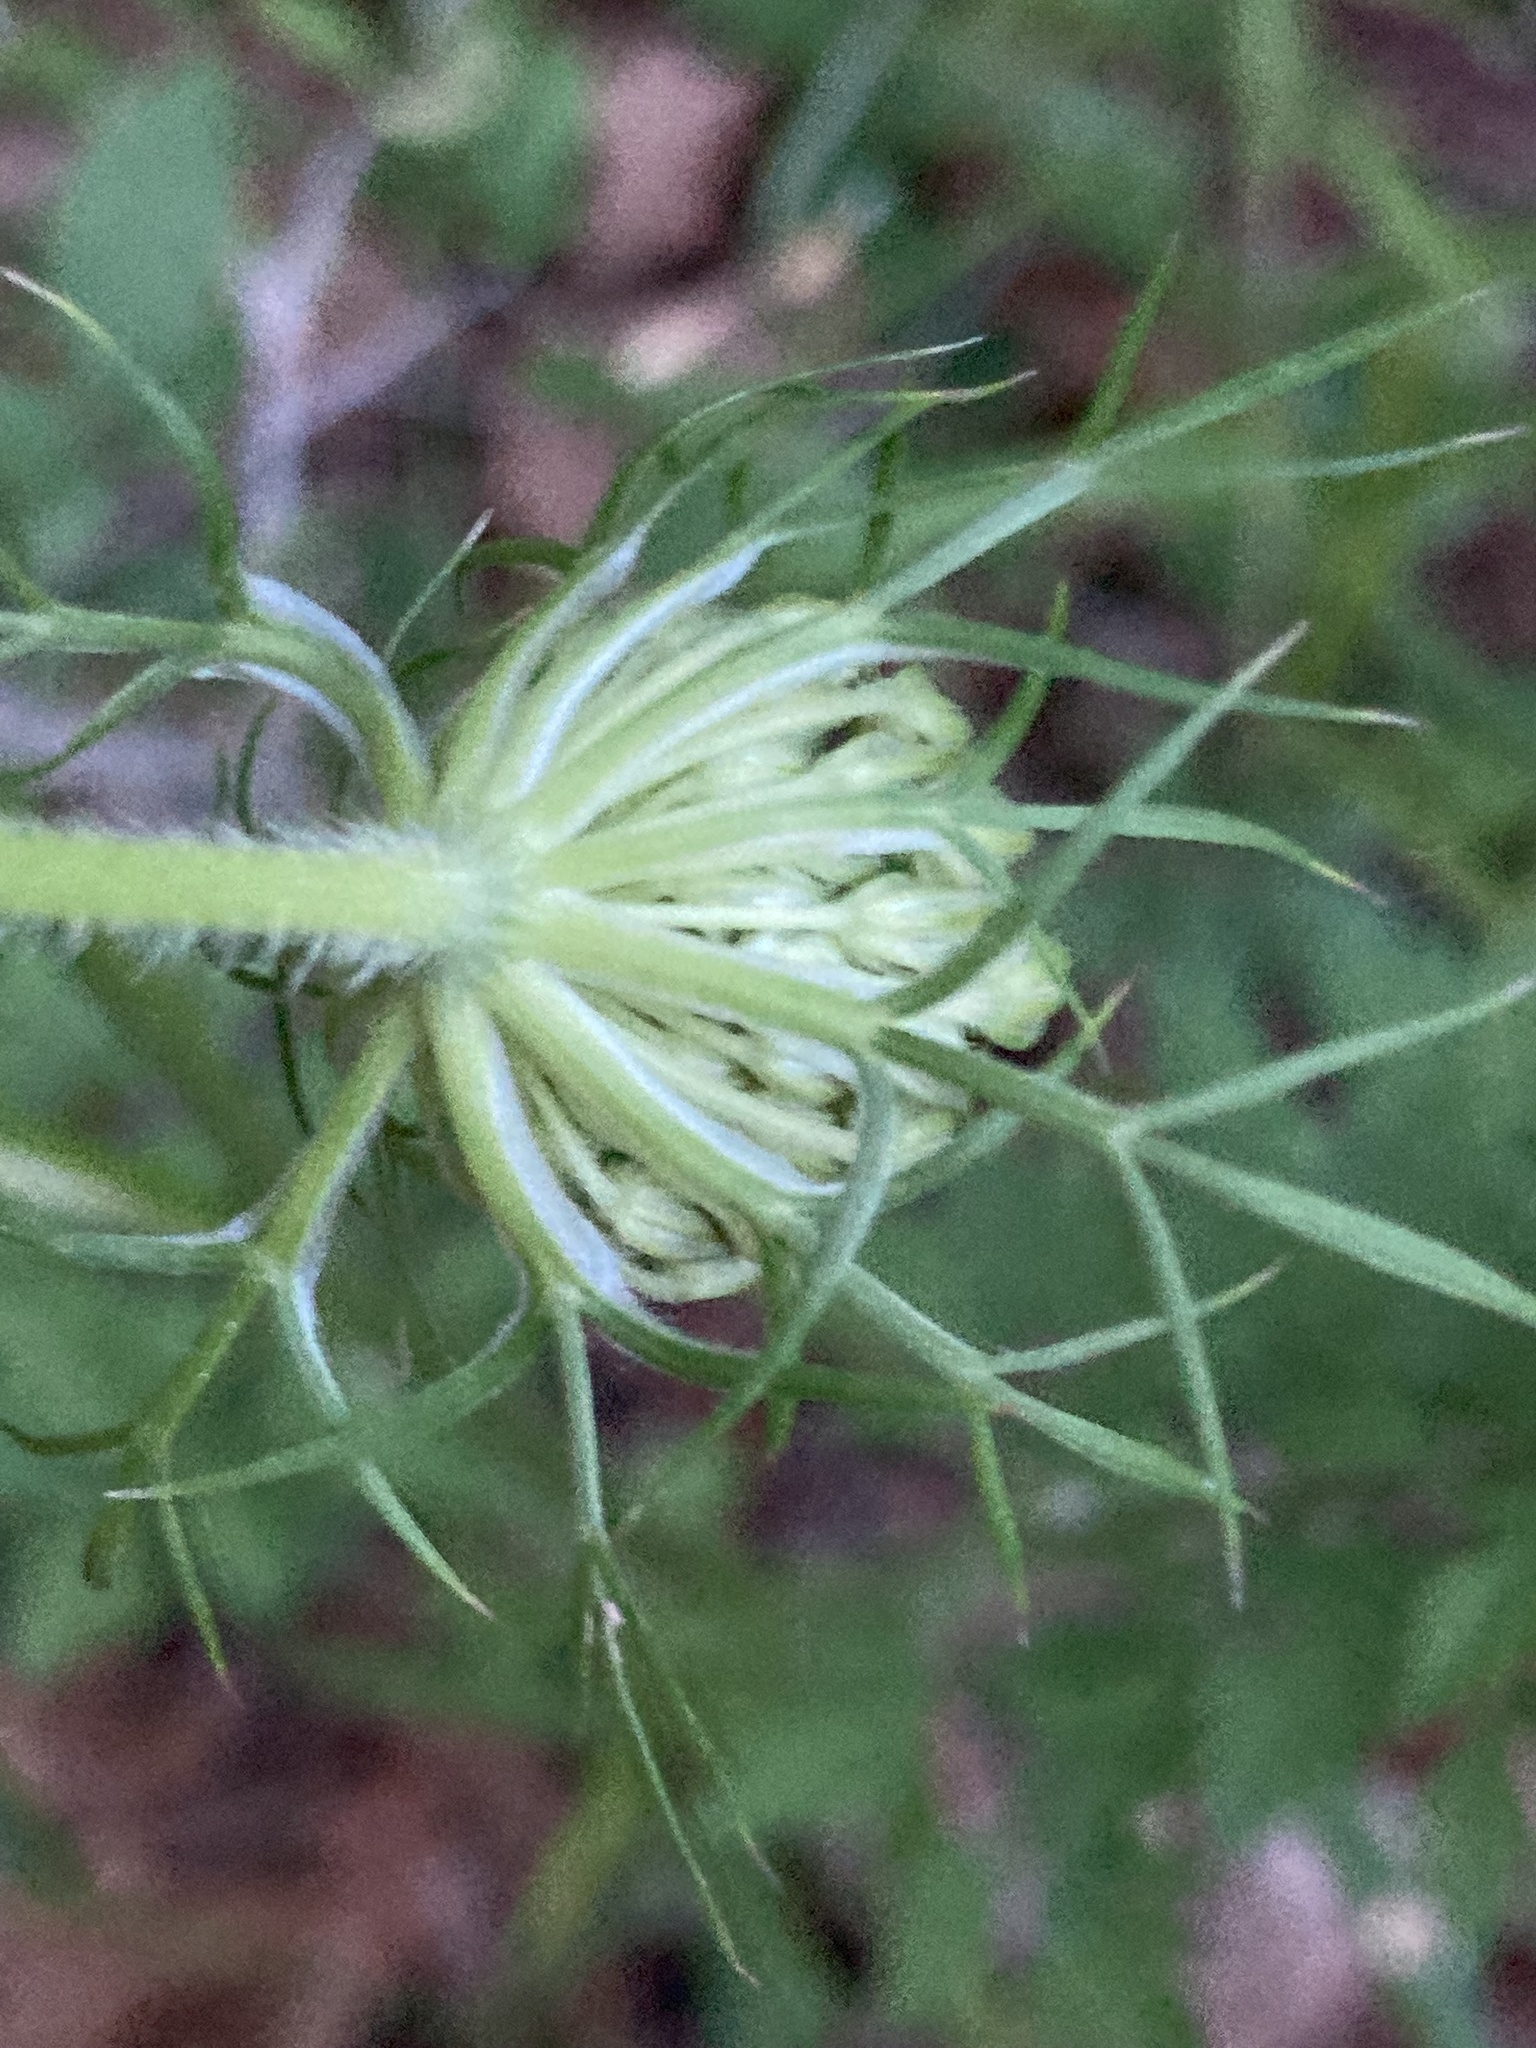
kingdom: Plantae
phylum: Tracheophyta
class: Magnoliopsida
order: Apiales
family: Apiaceae
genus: Daucus
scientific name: Daucus carota
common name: Wild carrot
